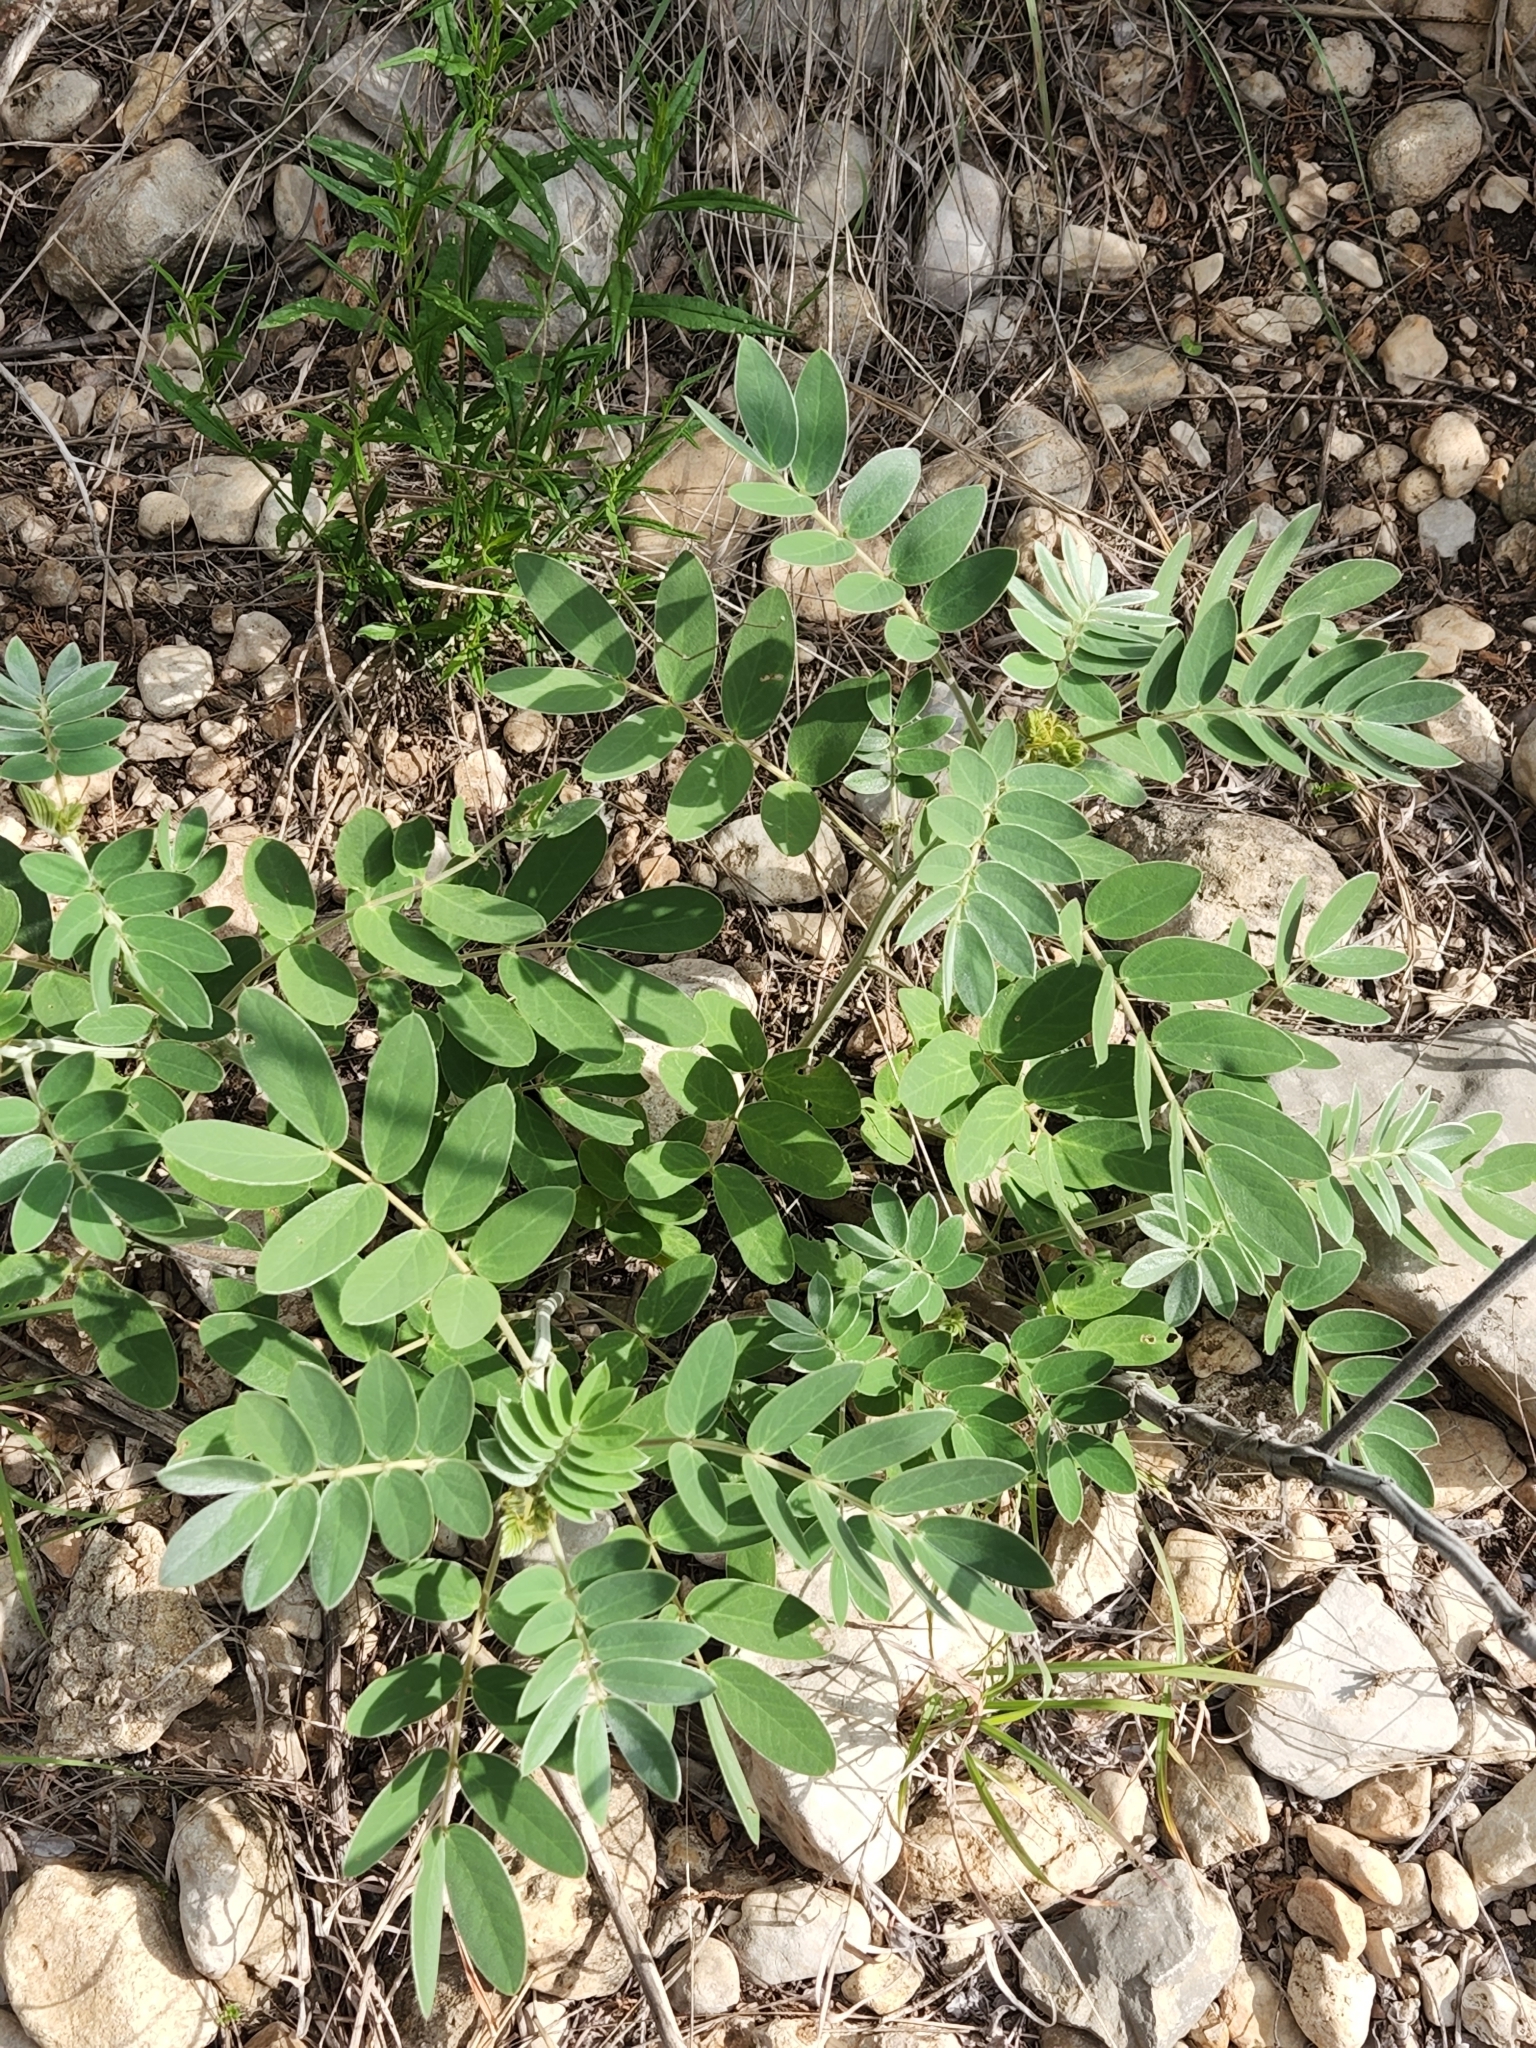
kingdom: Plantae
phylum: Tracheophyta
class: Magnoliopsida
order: Fabales
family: Fabaceae
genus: Senna
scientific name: Senna lindheimeriana
